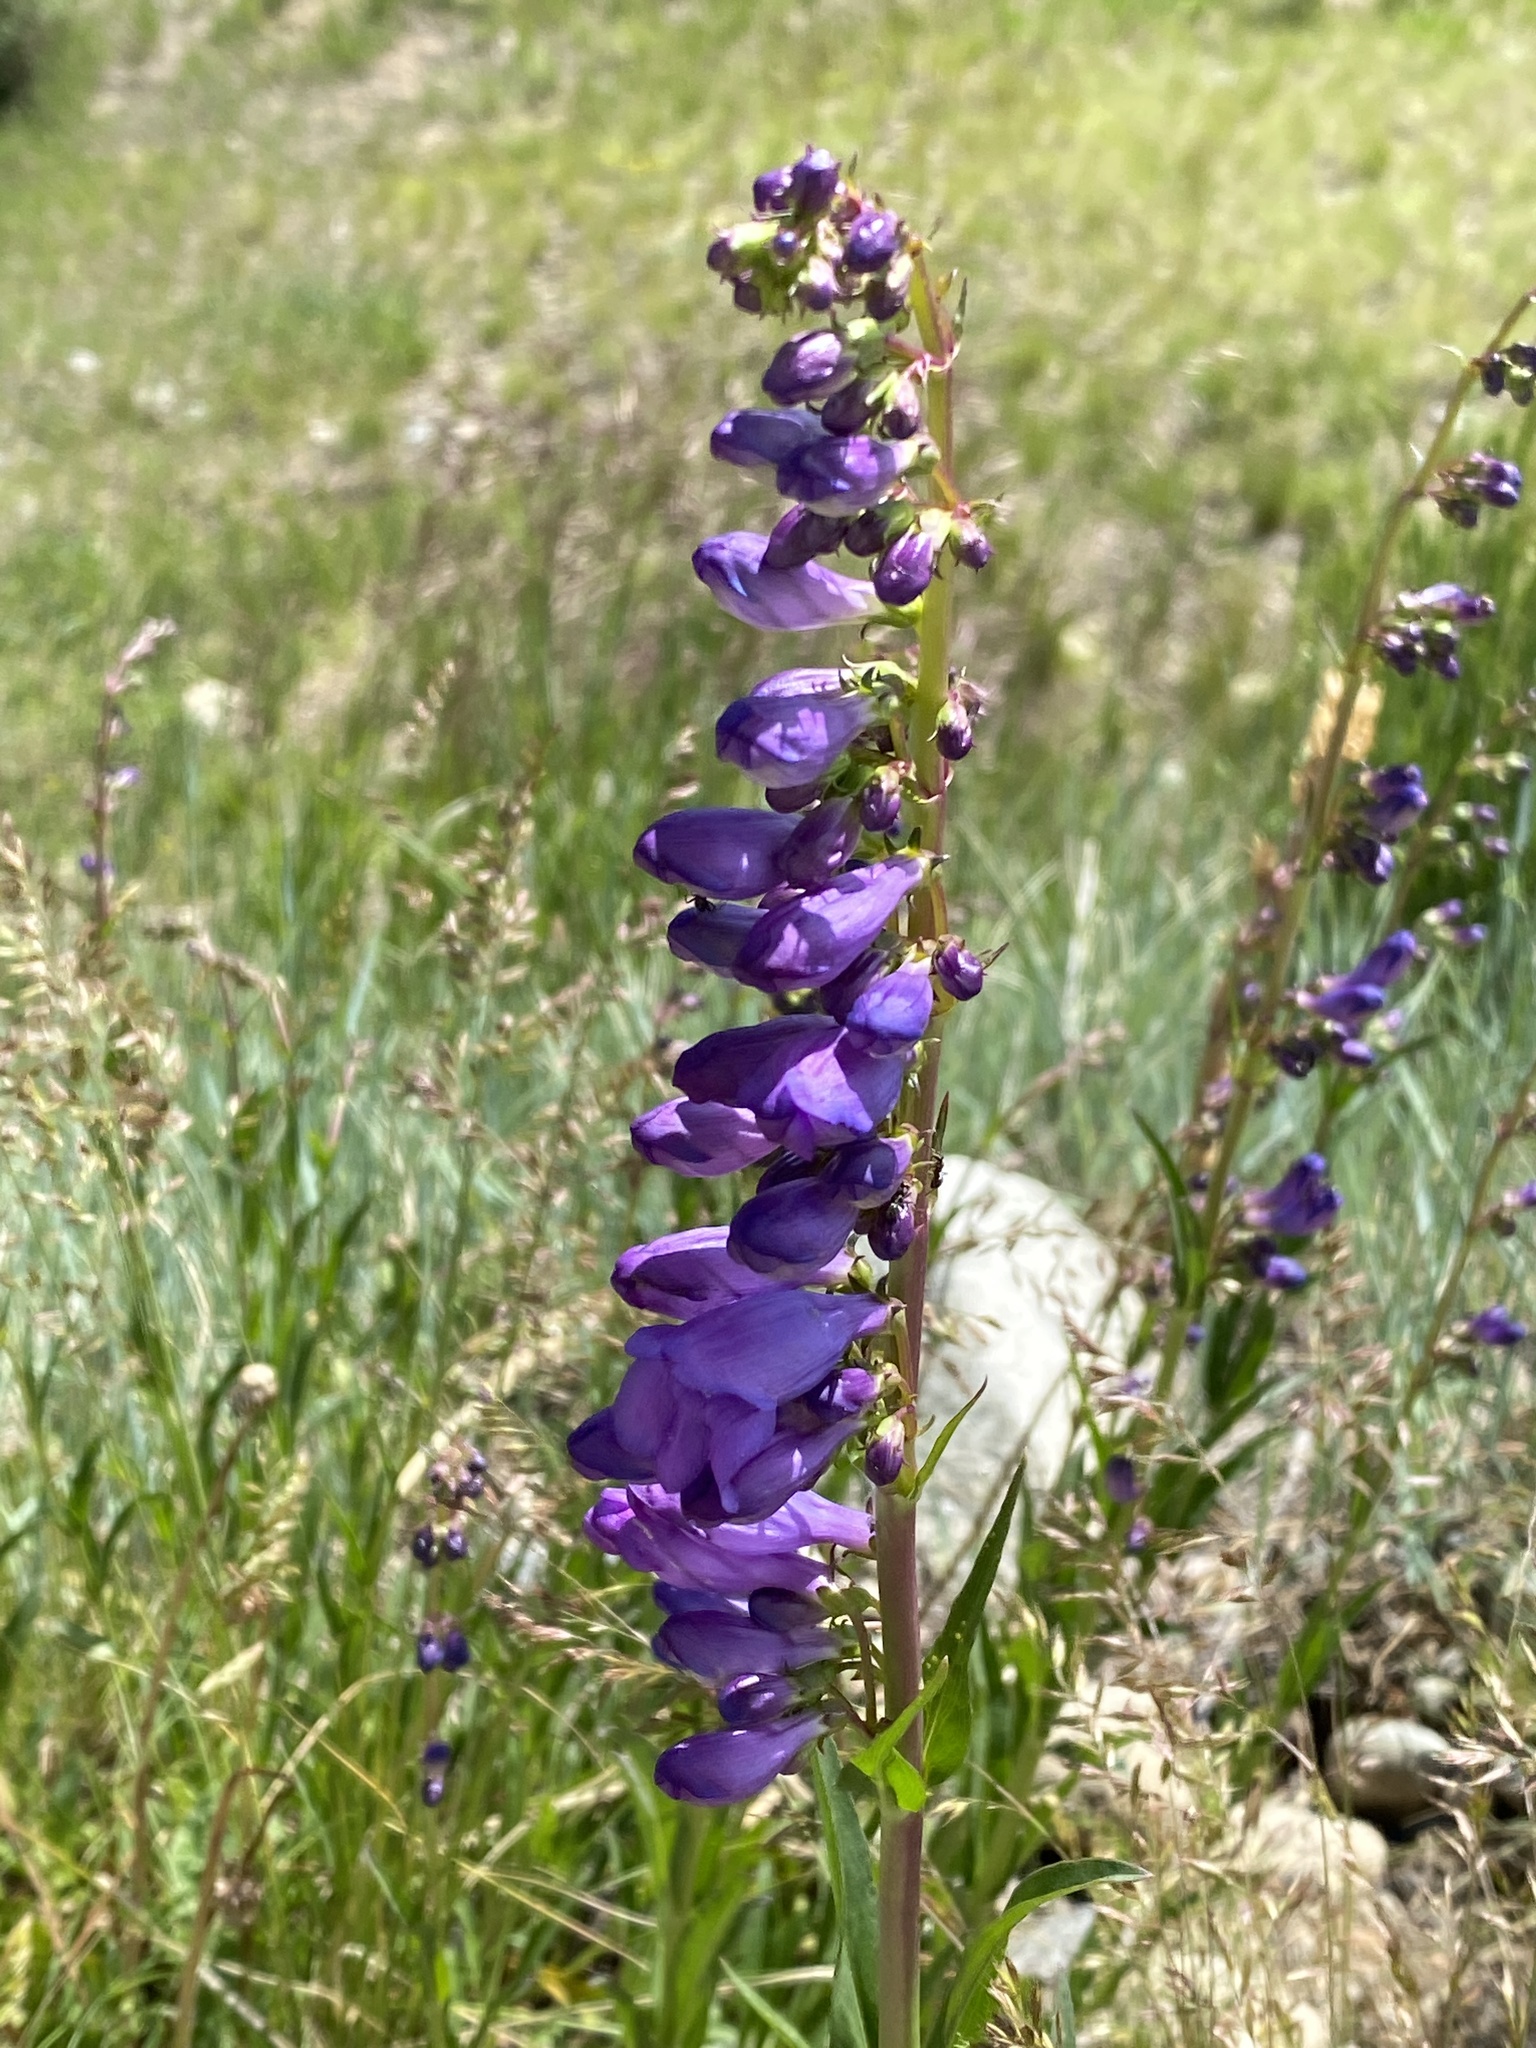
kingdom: Plantae
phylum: Tracheophyta
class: Magnoliopsida
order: Lamiales
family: Plantaginaceae
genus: Penstemon
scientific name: Penstemon strictus
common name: Rocky mountain penstemon
